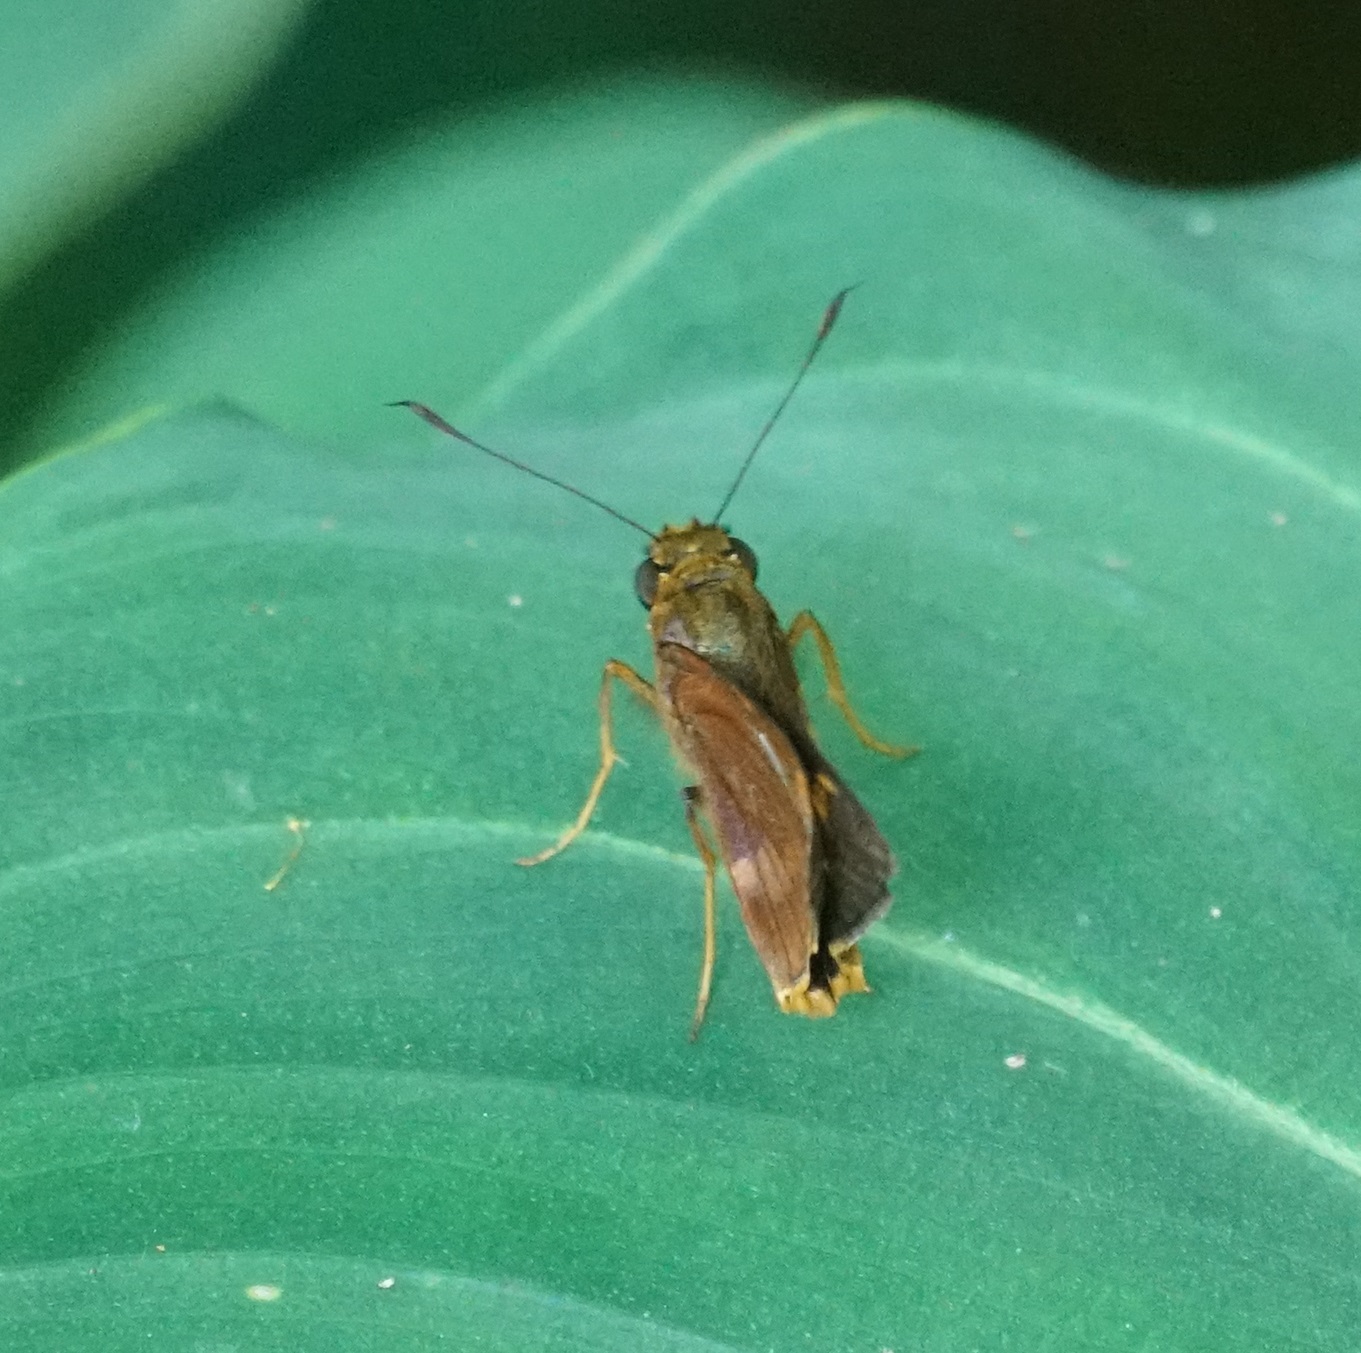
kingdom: Animalia
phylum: Arthropoda
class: Insecta
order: Lepidoptera
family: Hesperiidae
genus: Sabera
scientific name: Sabera dobboe
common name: Yellow-streaked swift
